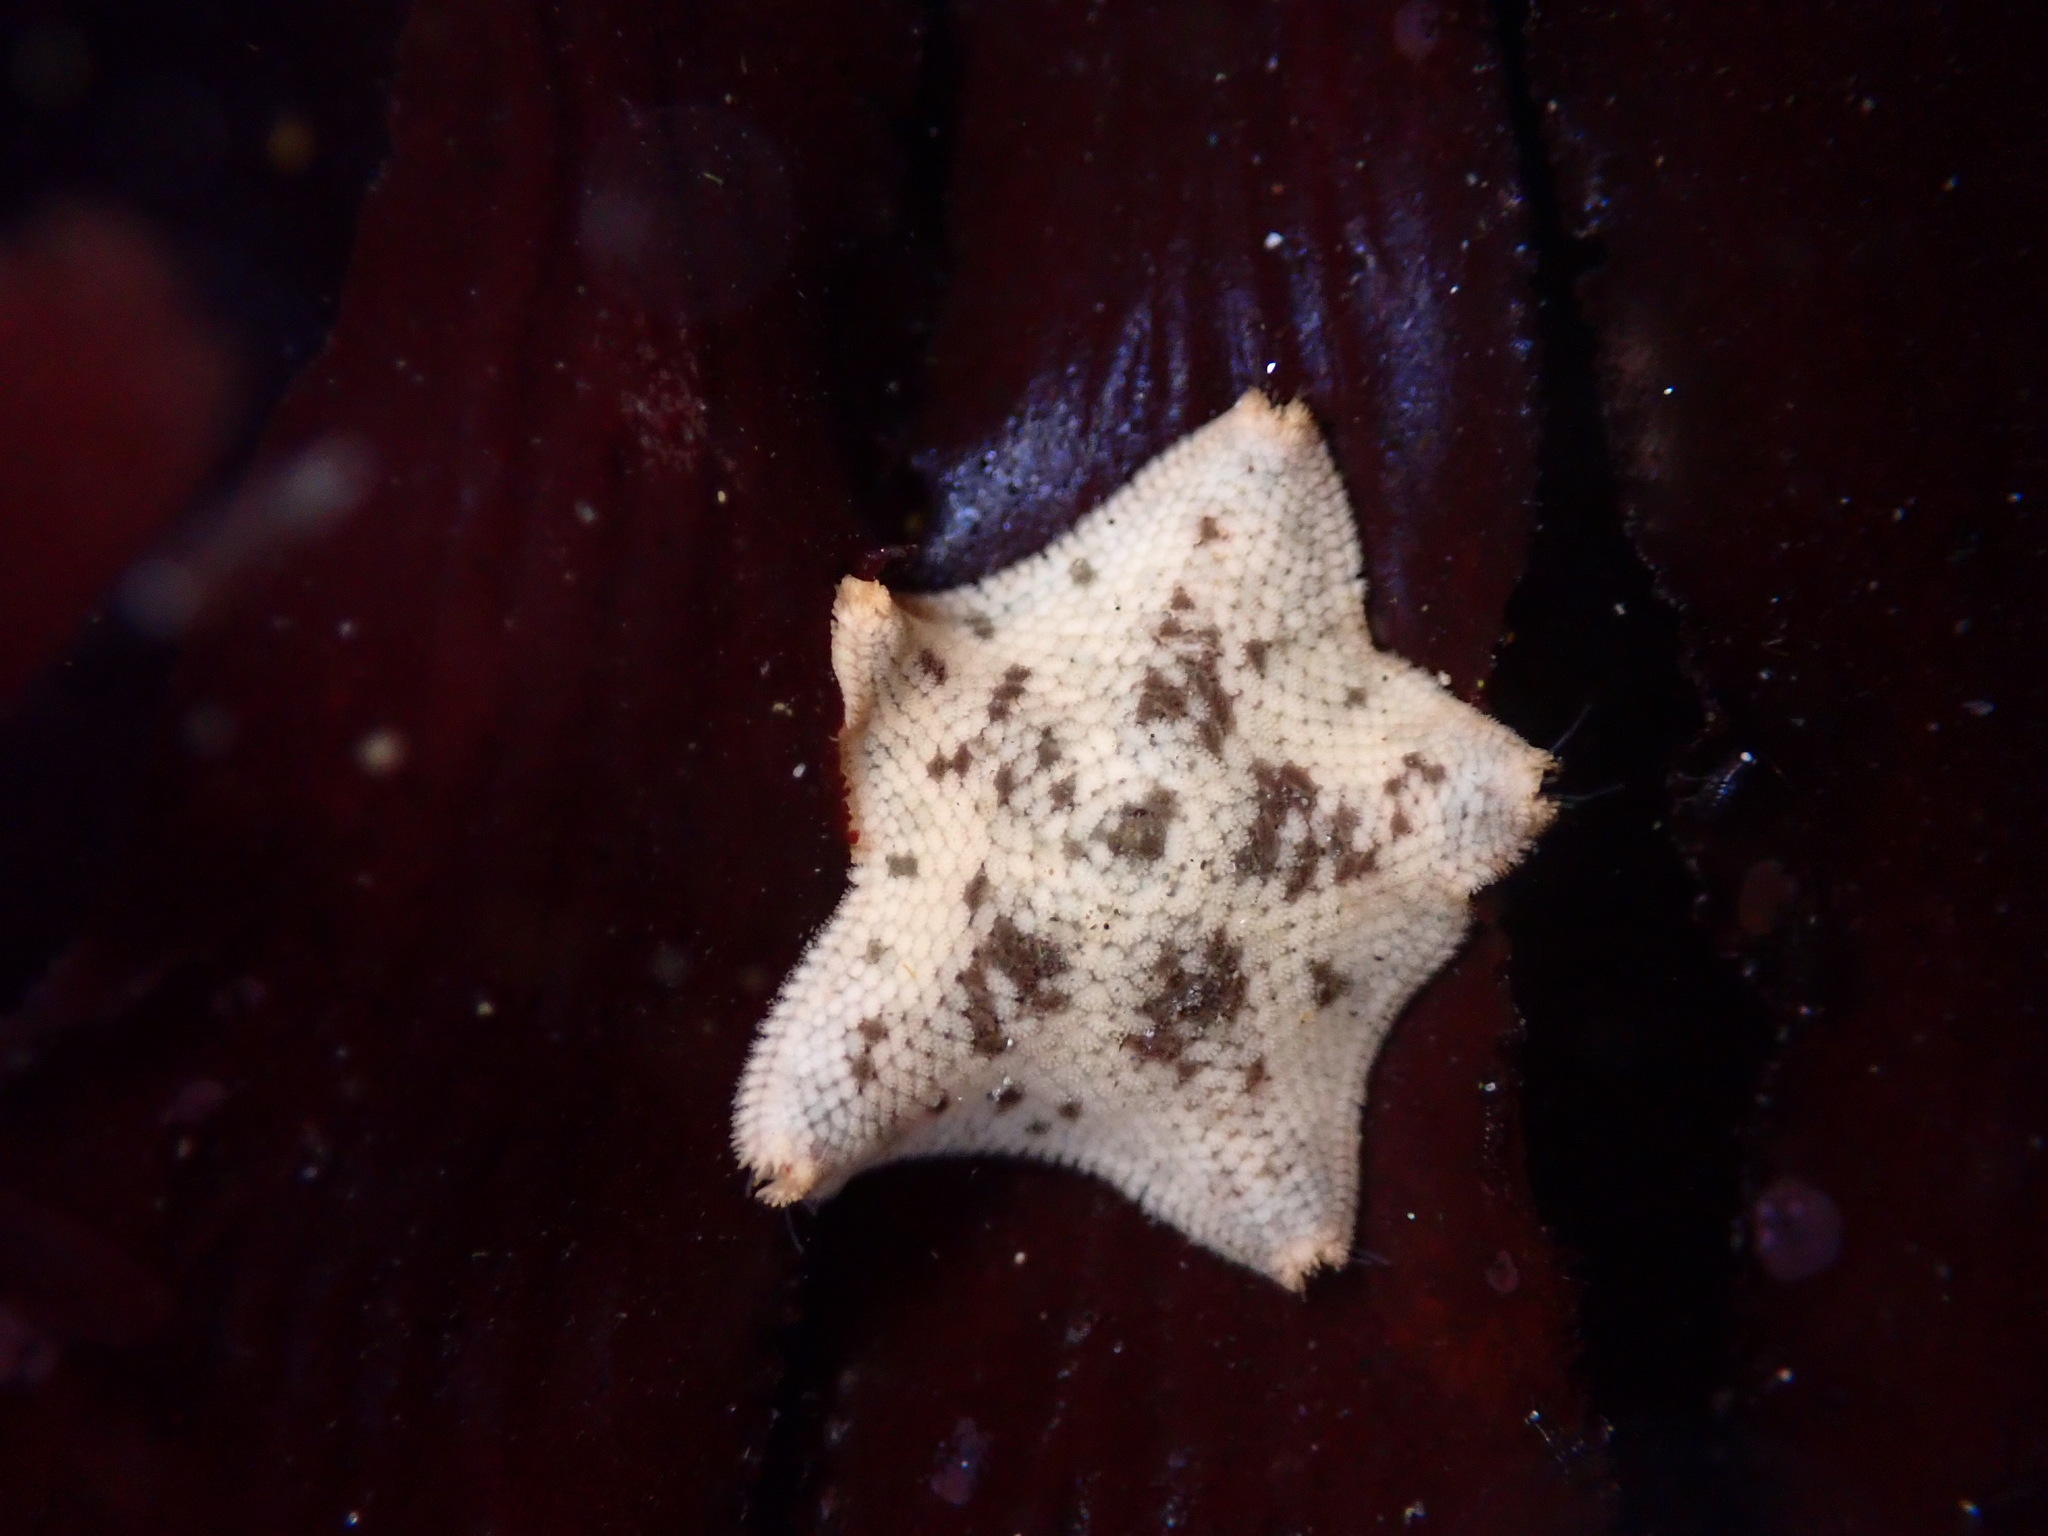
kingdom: Animalia
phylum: Echinodermata
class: Asteroidea
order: Valvatida
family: Asterinidae
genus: Patiria
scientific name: Patiria miniata
